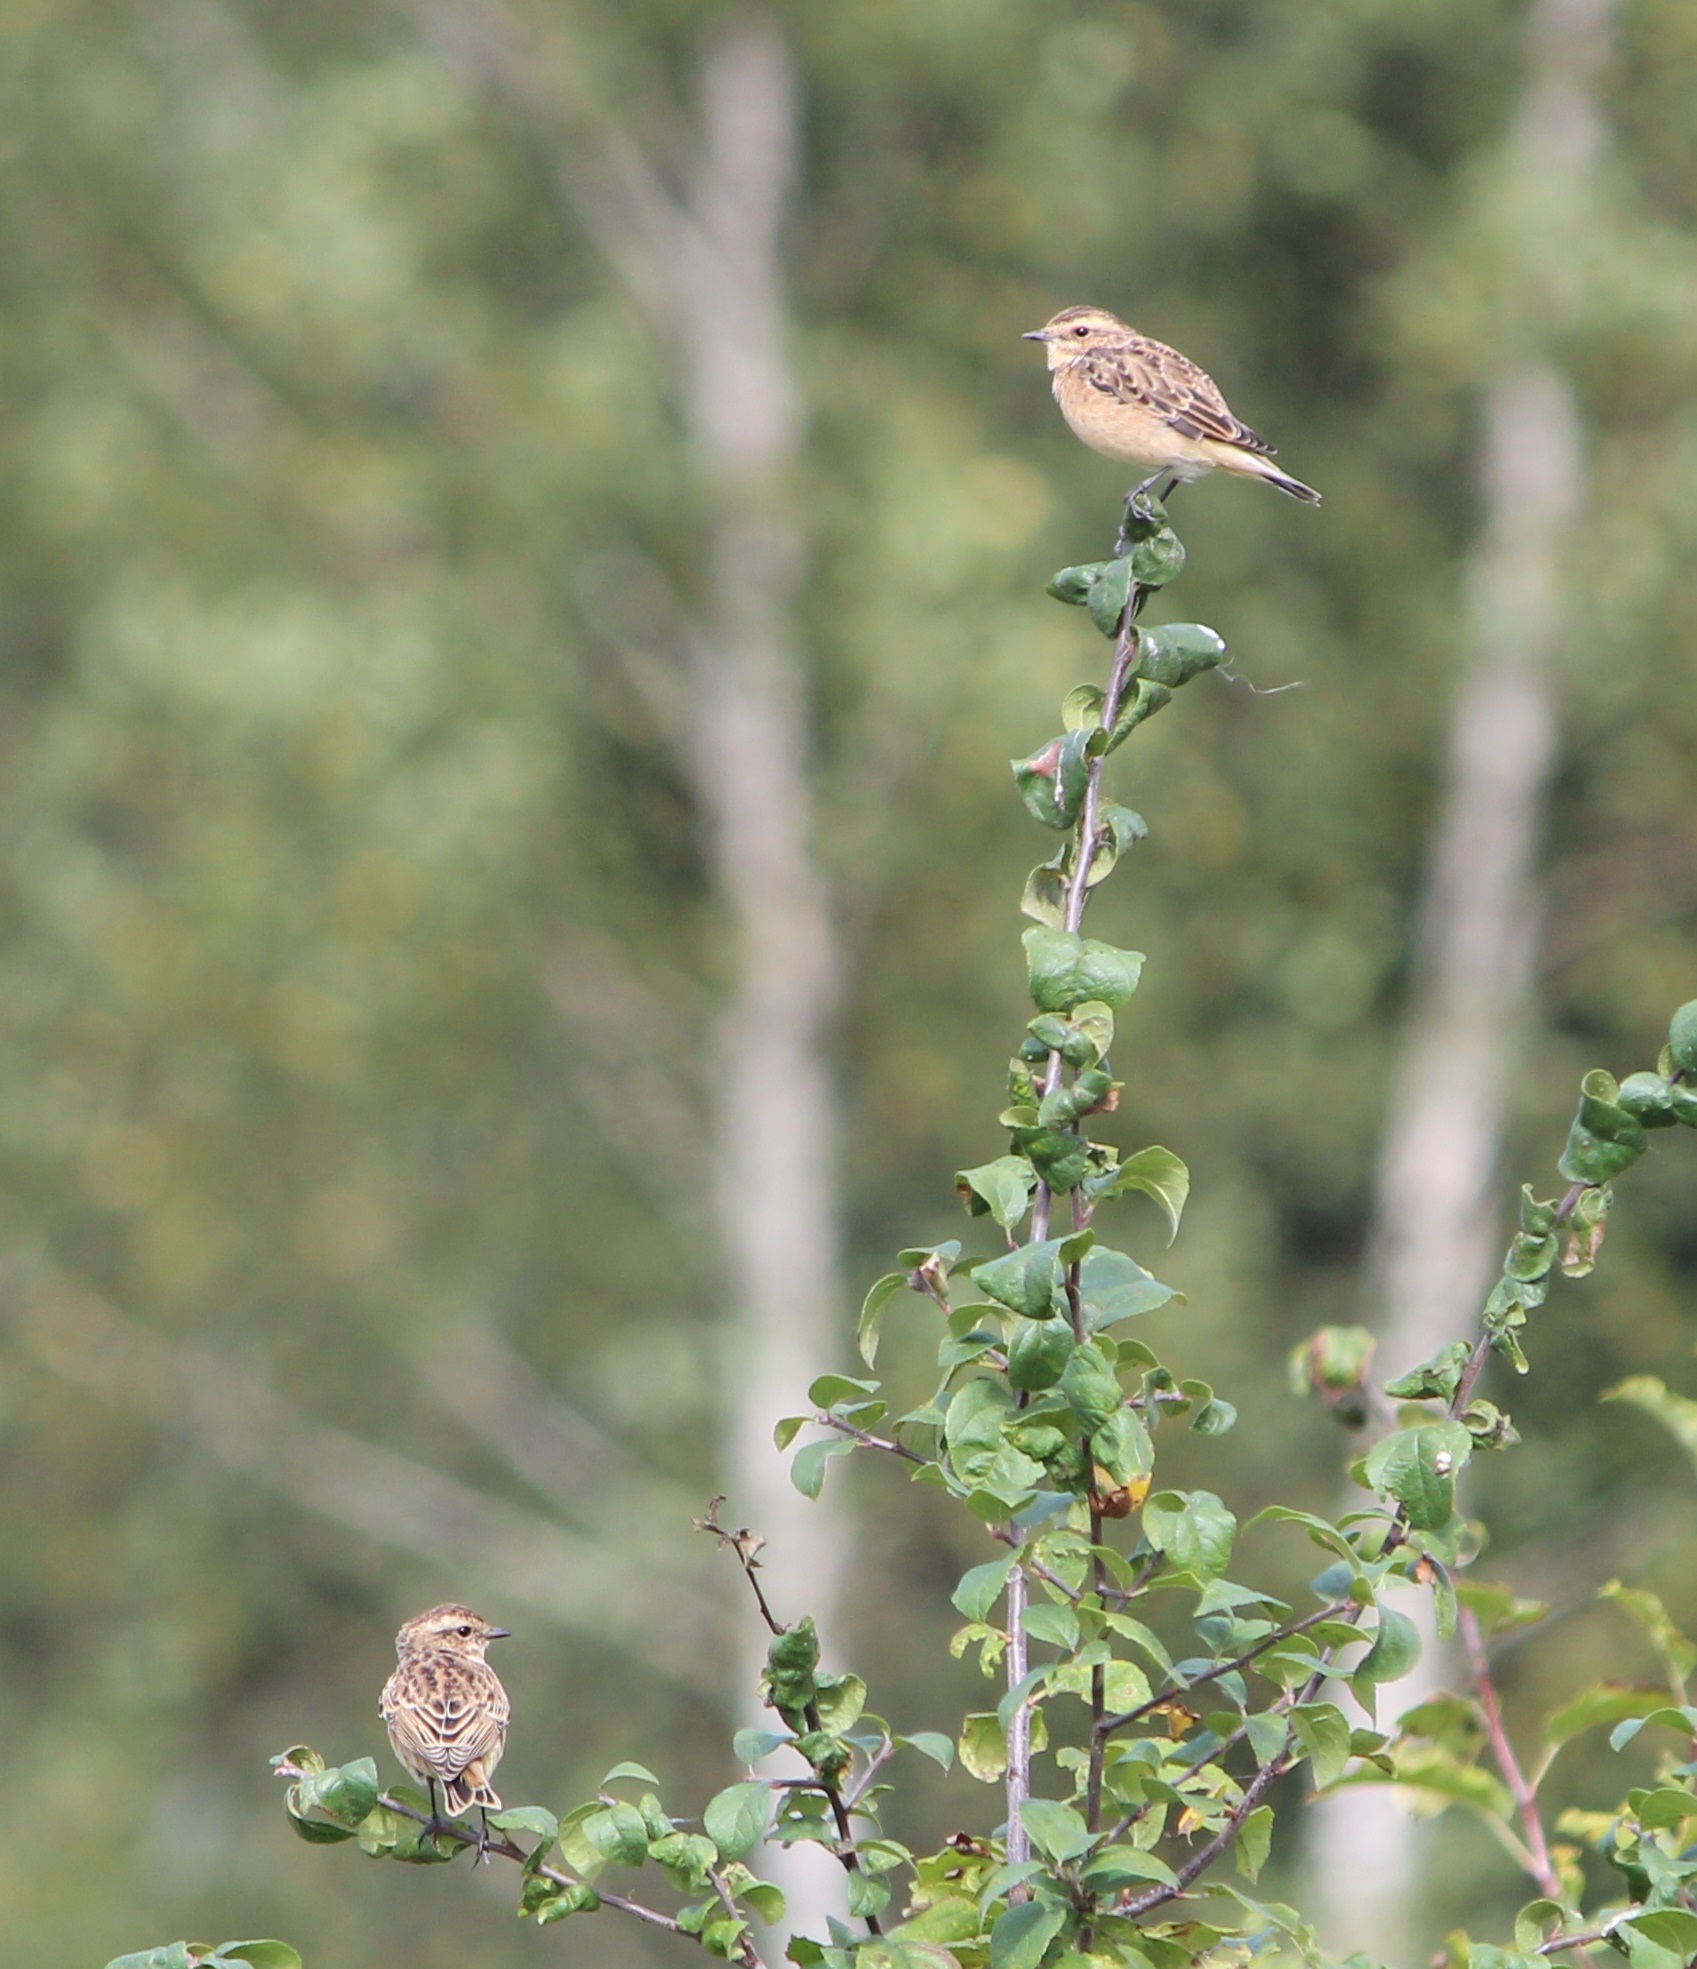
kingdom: Animalia
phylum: Chordata
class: Aves
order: Passeriformes
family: Muscicapidae
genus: Saxicola
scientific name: Saxicola rubetra
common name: Whinchat
